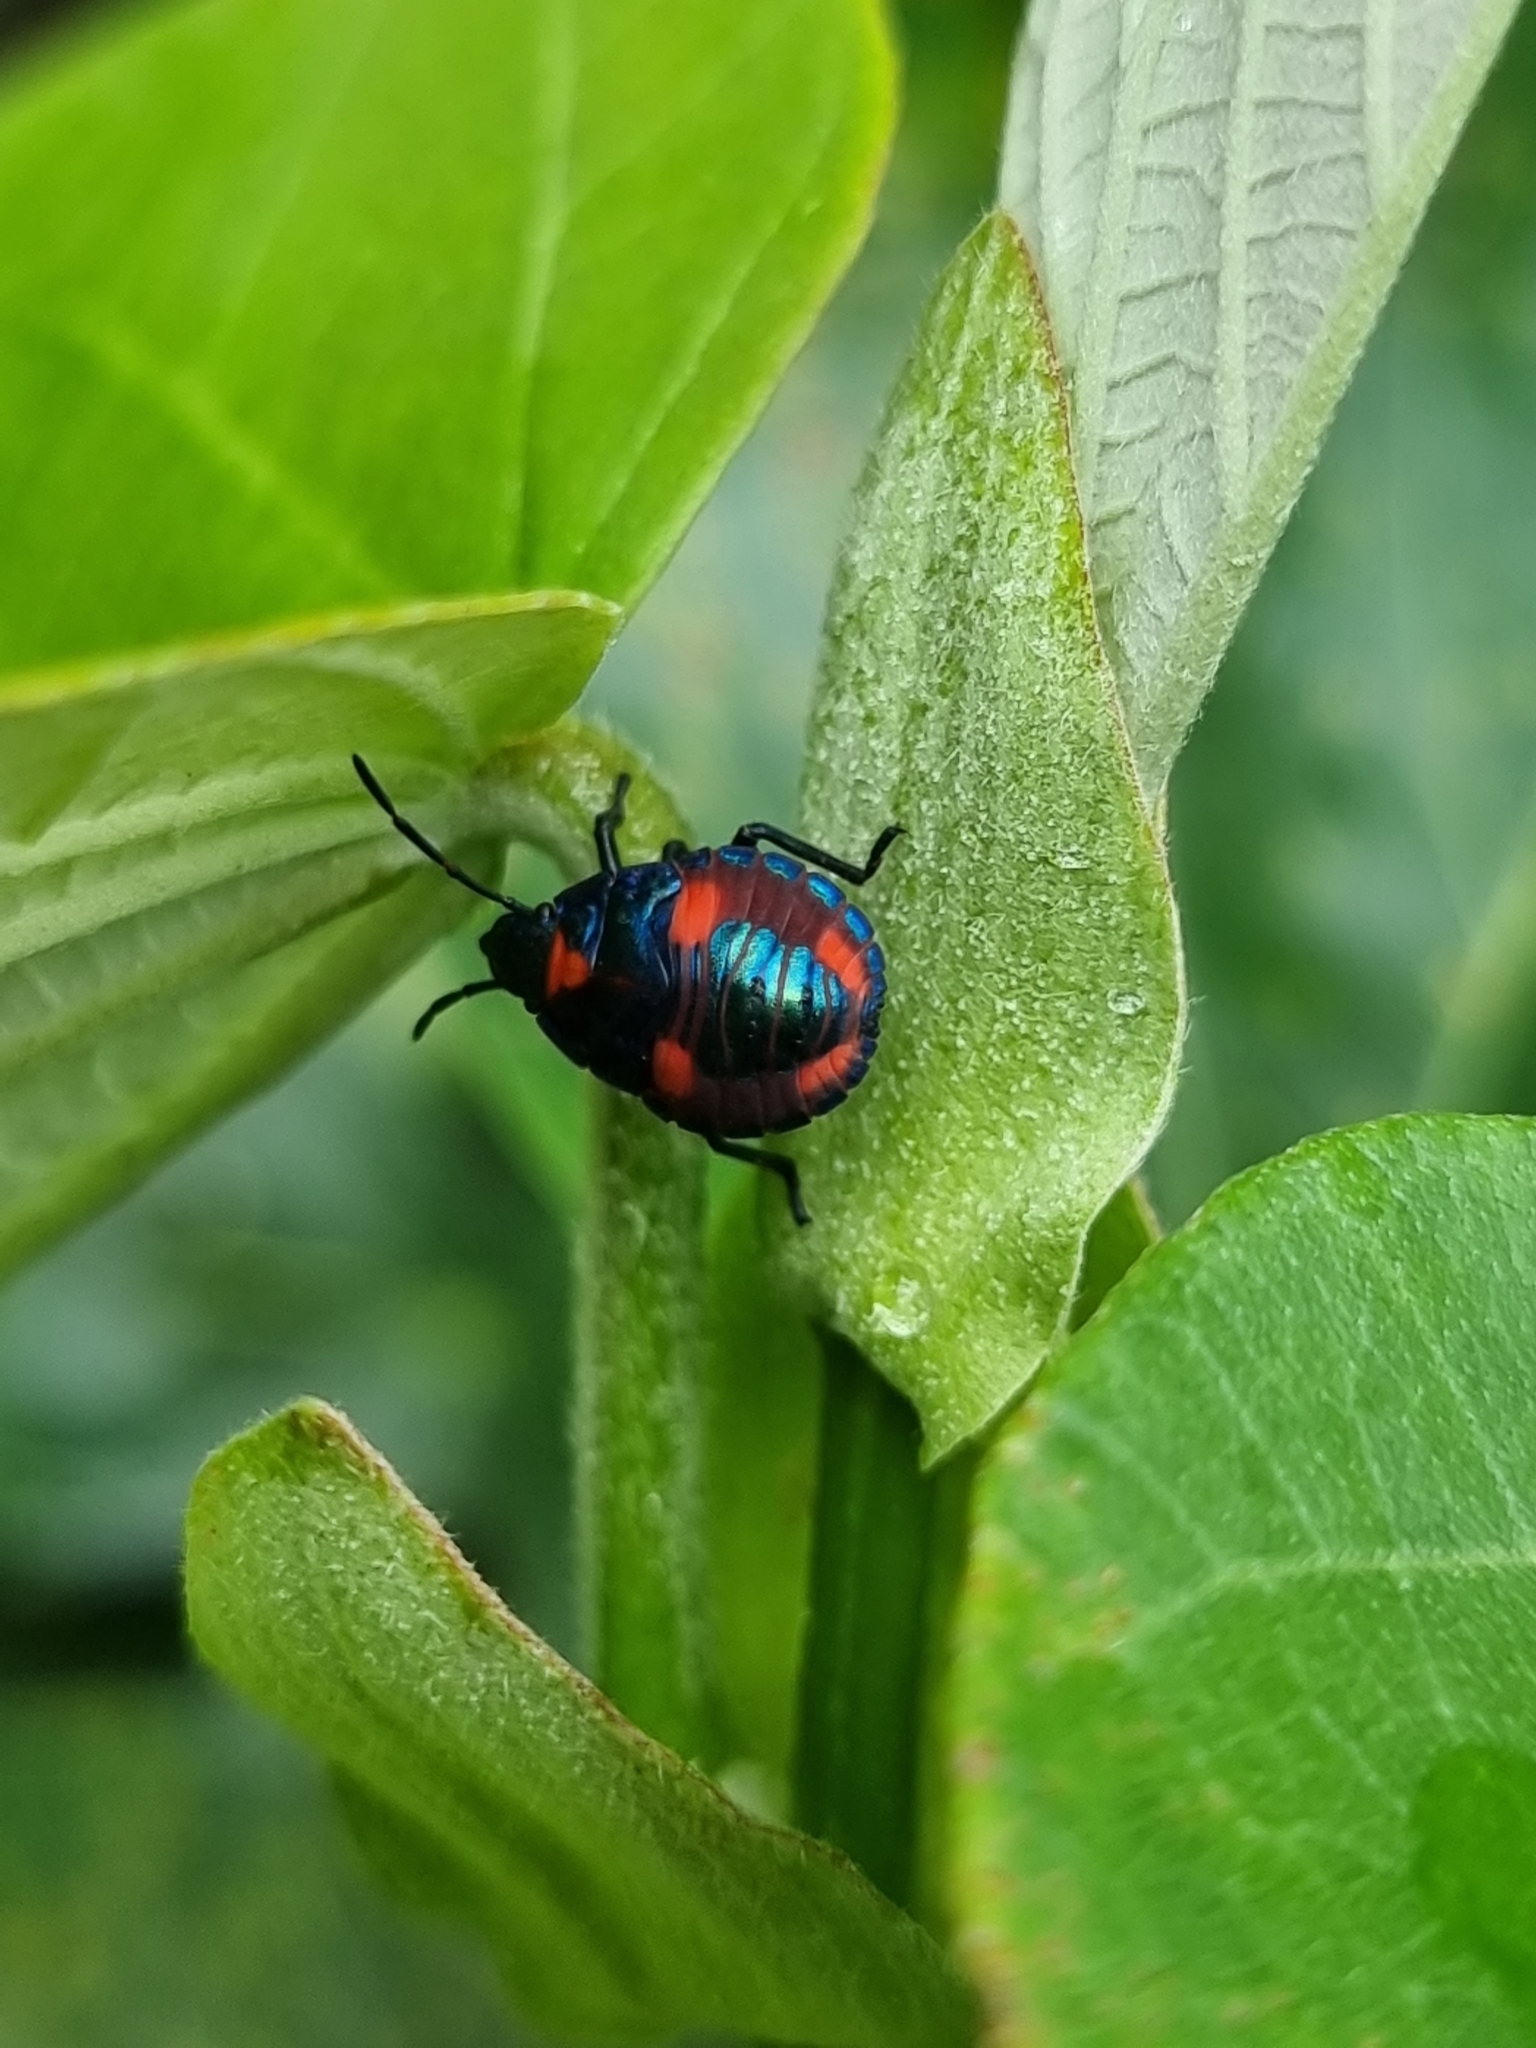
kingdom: Animalia
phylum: Arthropoda
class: Insecta
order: Hemiptera
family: Scutelleridae
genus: Tectocoris
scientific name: Tectocoris diophthalmus
